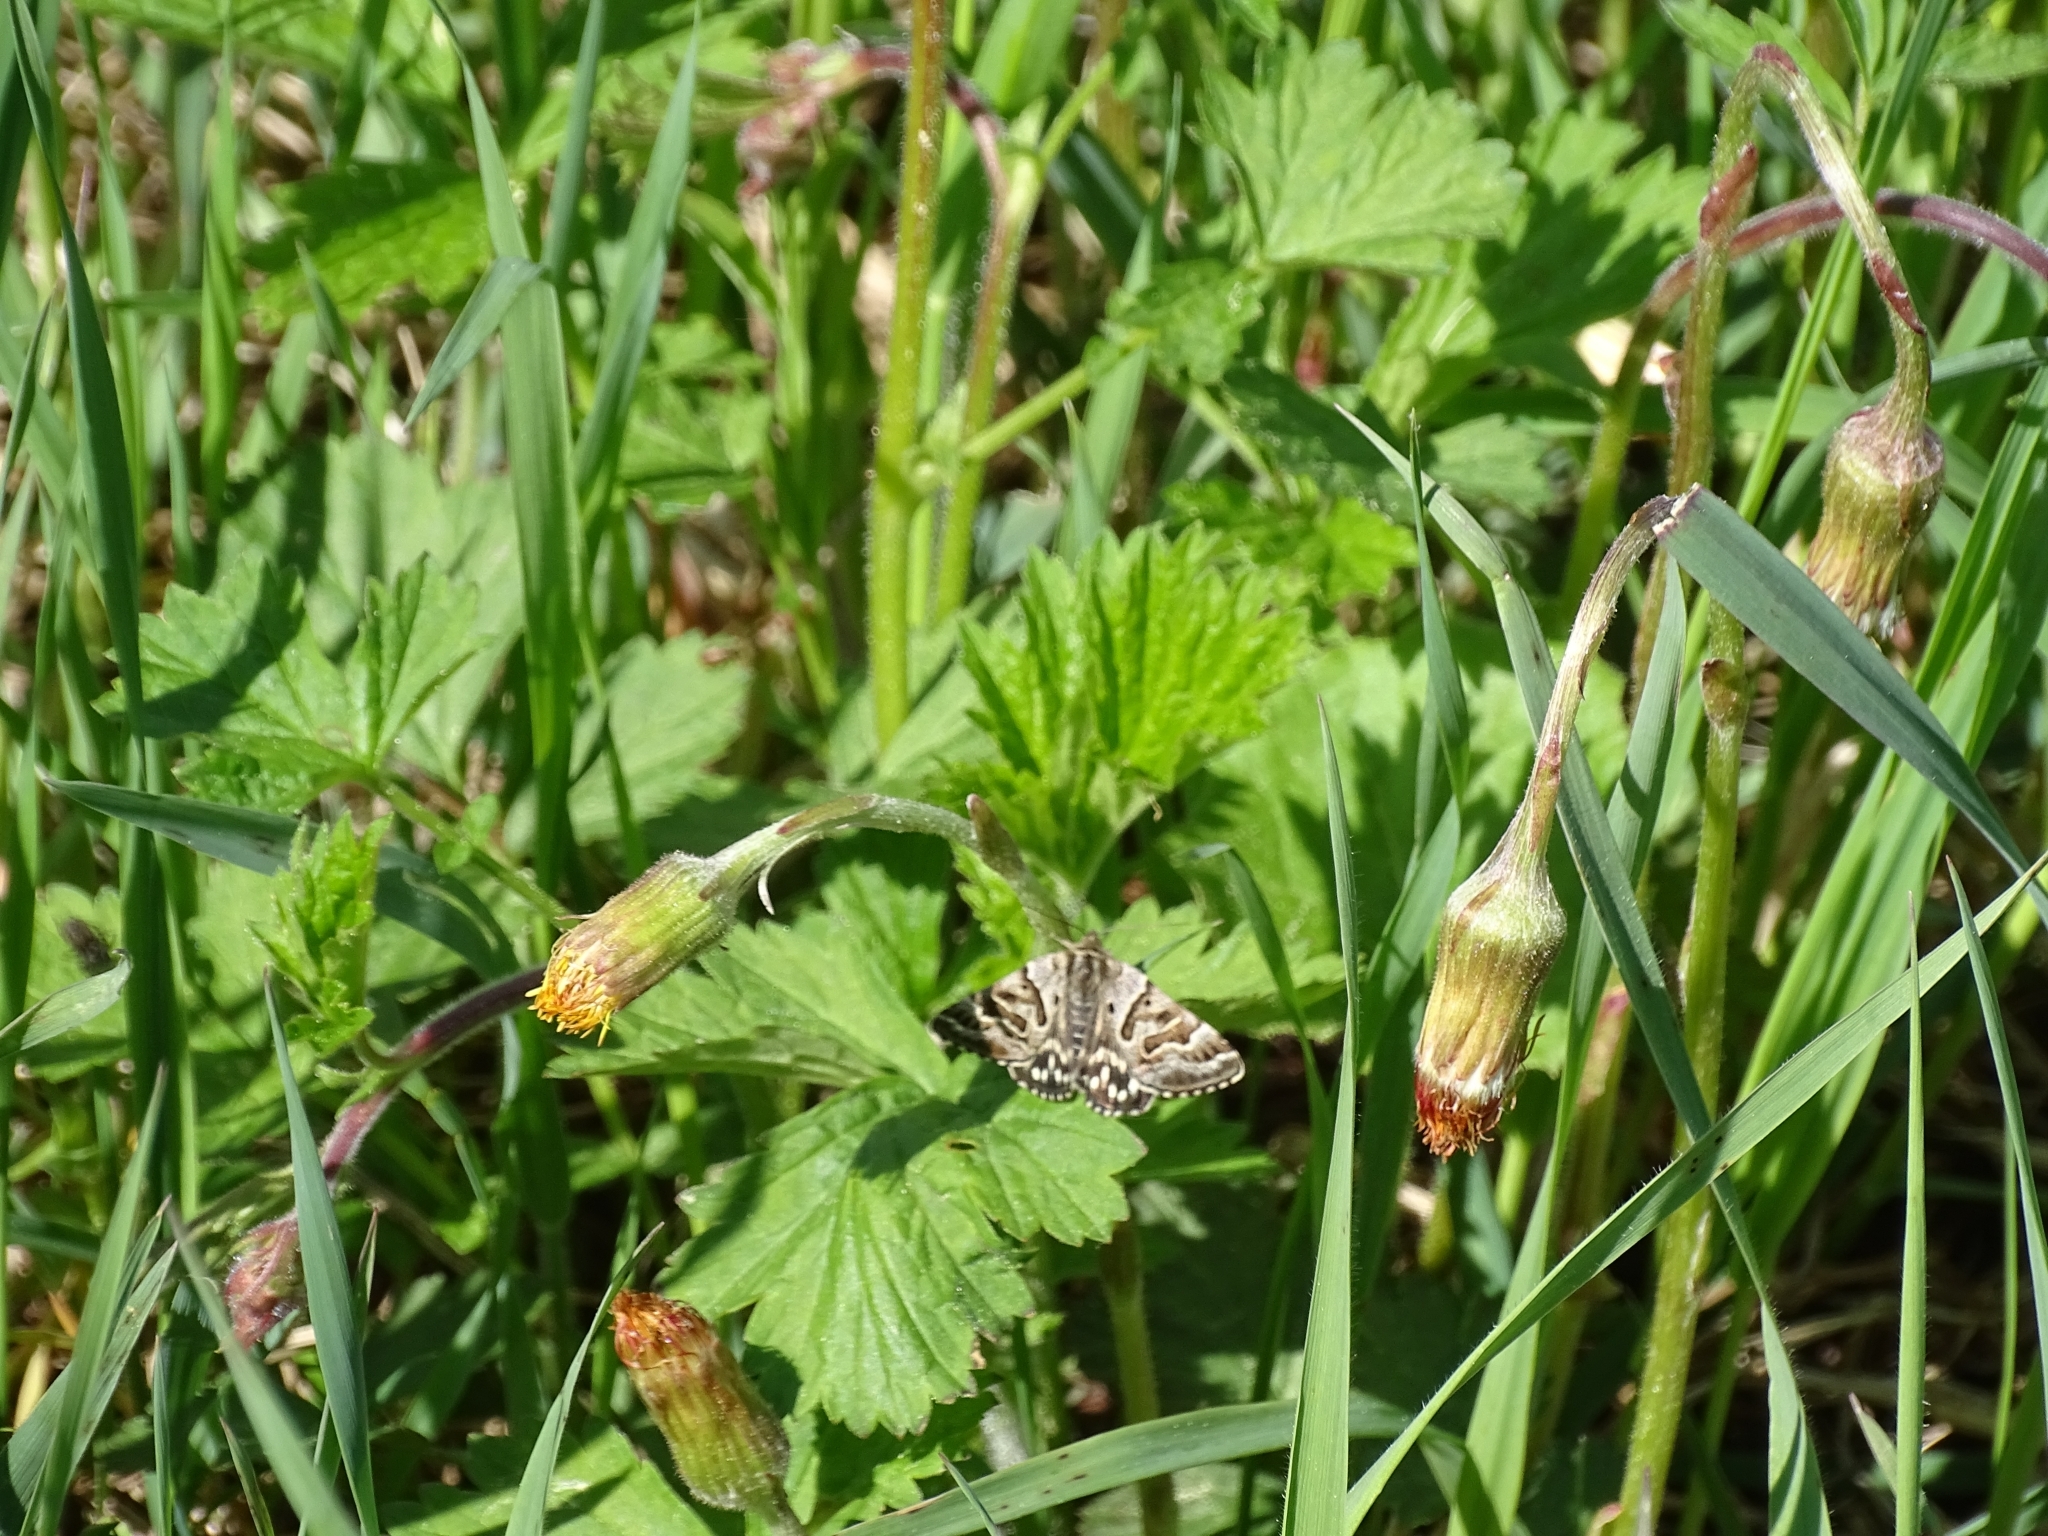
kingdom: Animalia
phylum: Arthropoda
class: Insecta
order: Lepidoptera
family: Erebidae
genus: Callistege
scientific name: Callistege mi
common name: Mother shipton
